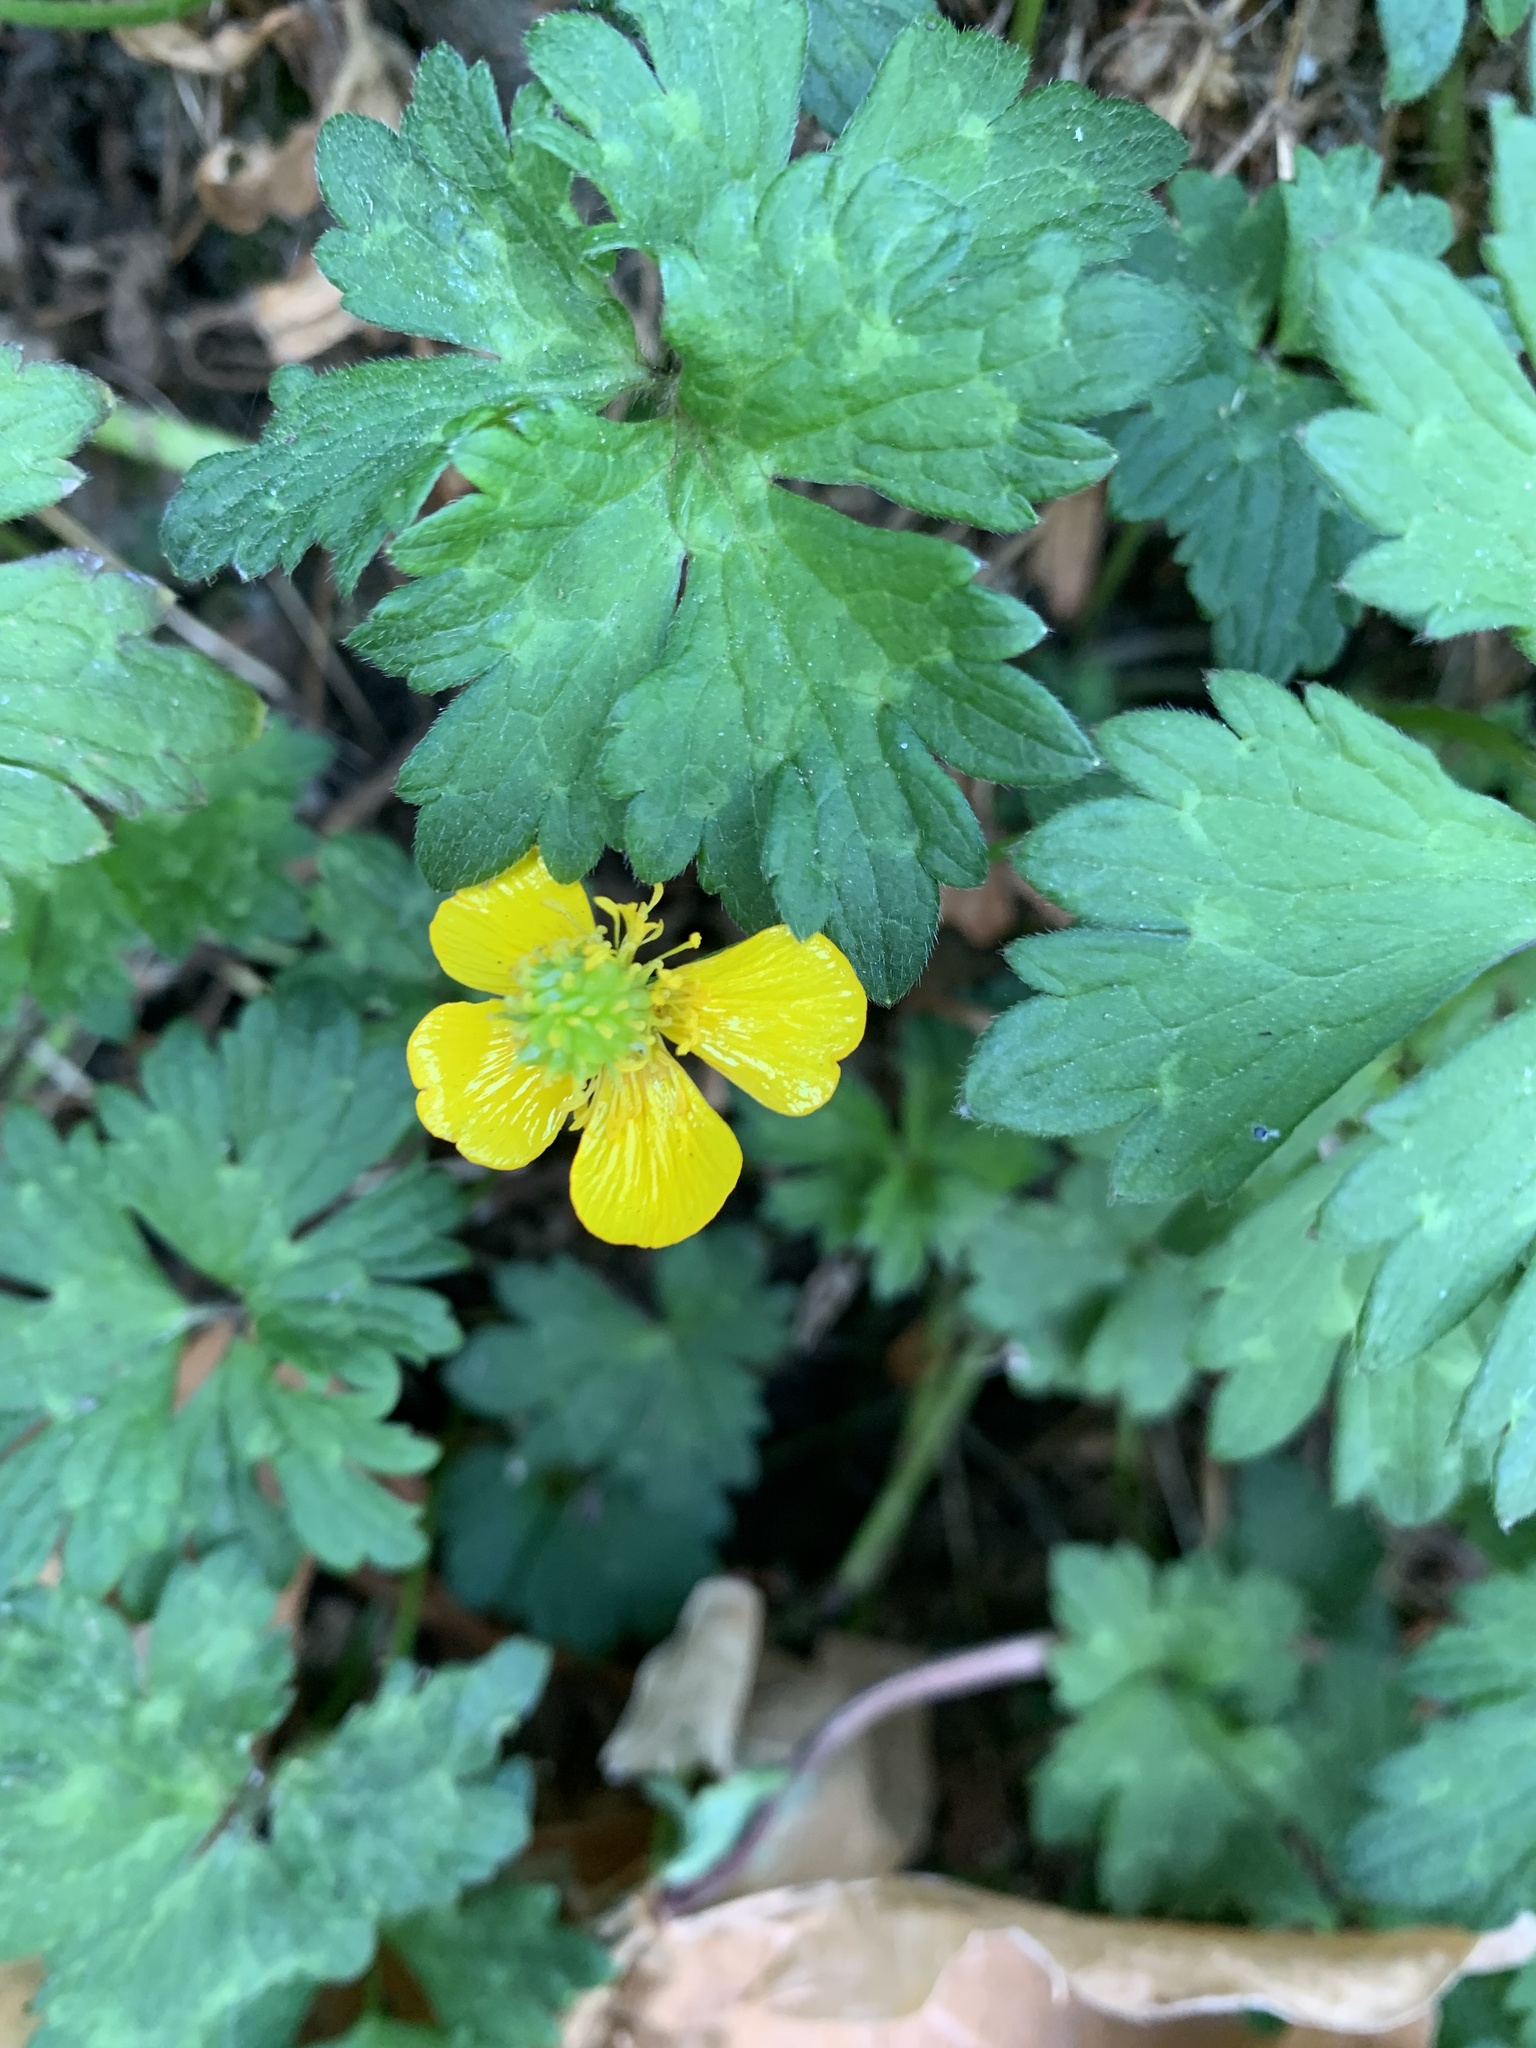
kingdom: Plantae
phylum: Tracheophyta
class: Magnoliopsida
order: Ranunculales
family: Ranunculaceae
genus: Ranunculus
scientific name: Ranunculus repens
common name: Creeping buttercup
